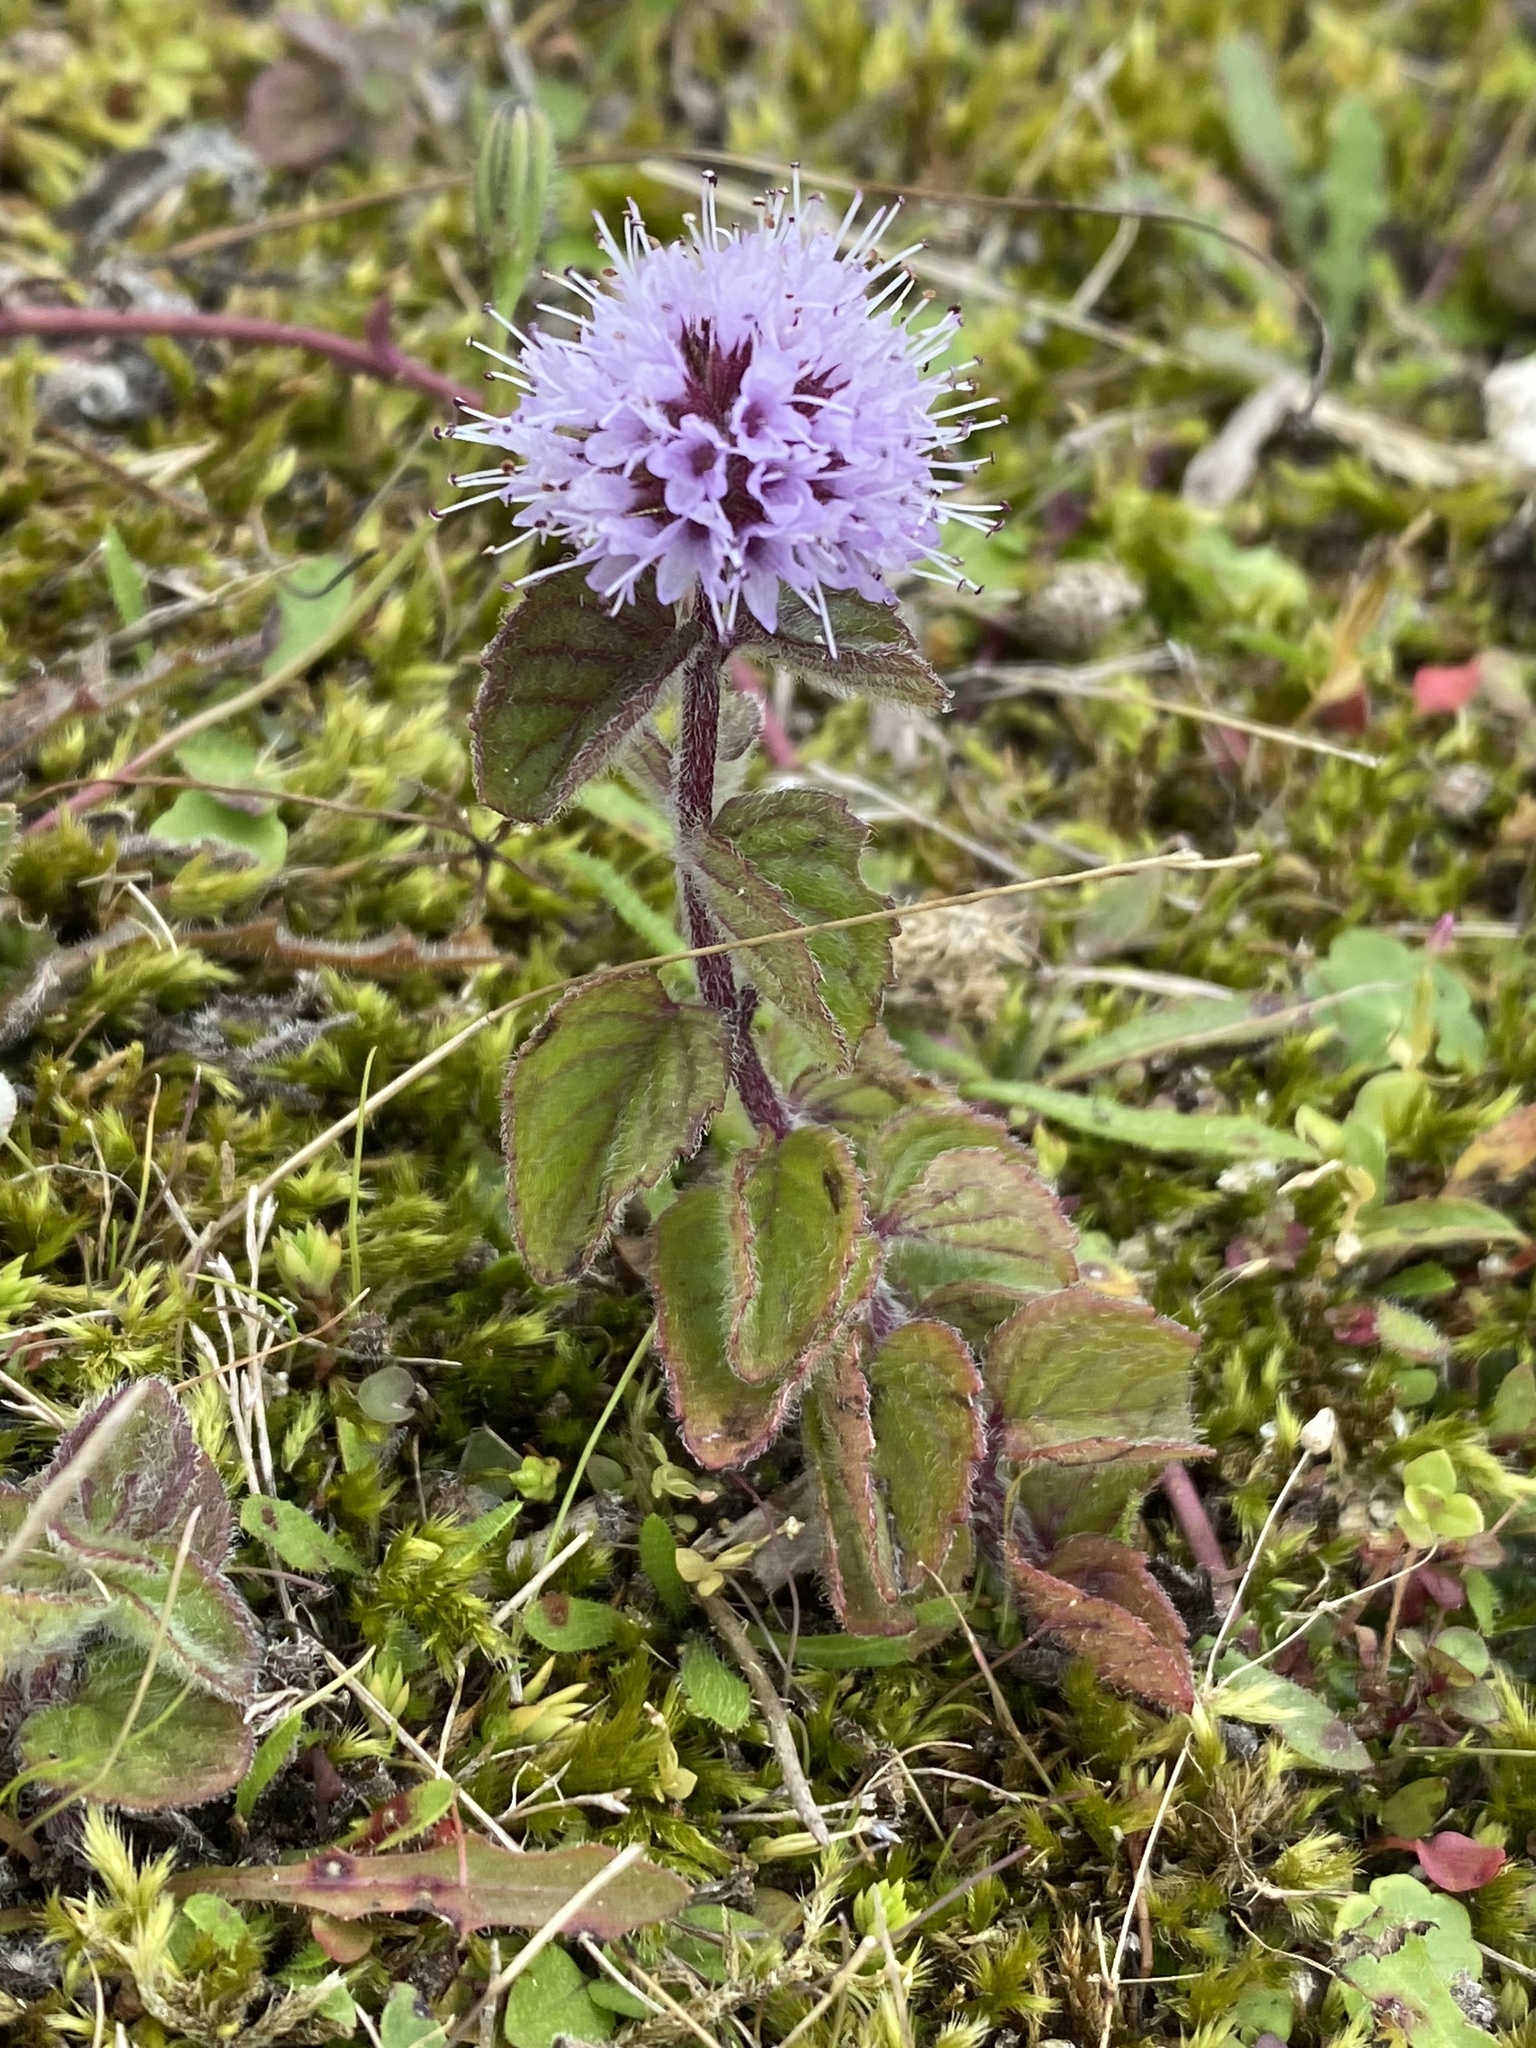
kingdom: Plantae
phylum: Tracheophyta
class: Magnoliopsida
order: Lamiales
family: Lamiaceae
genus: Mentha
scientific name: Mentha aquatica
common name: Water mint
